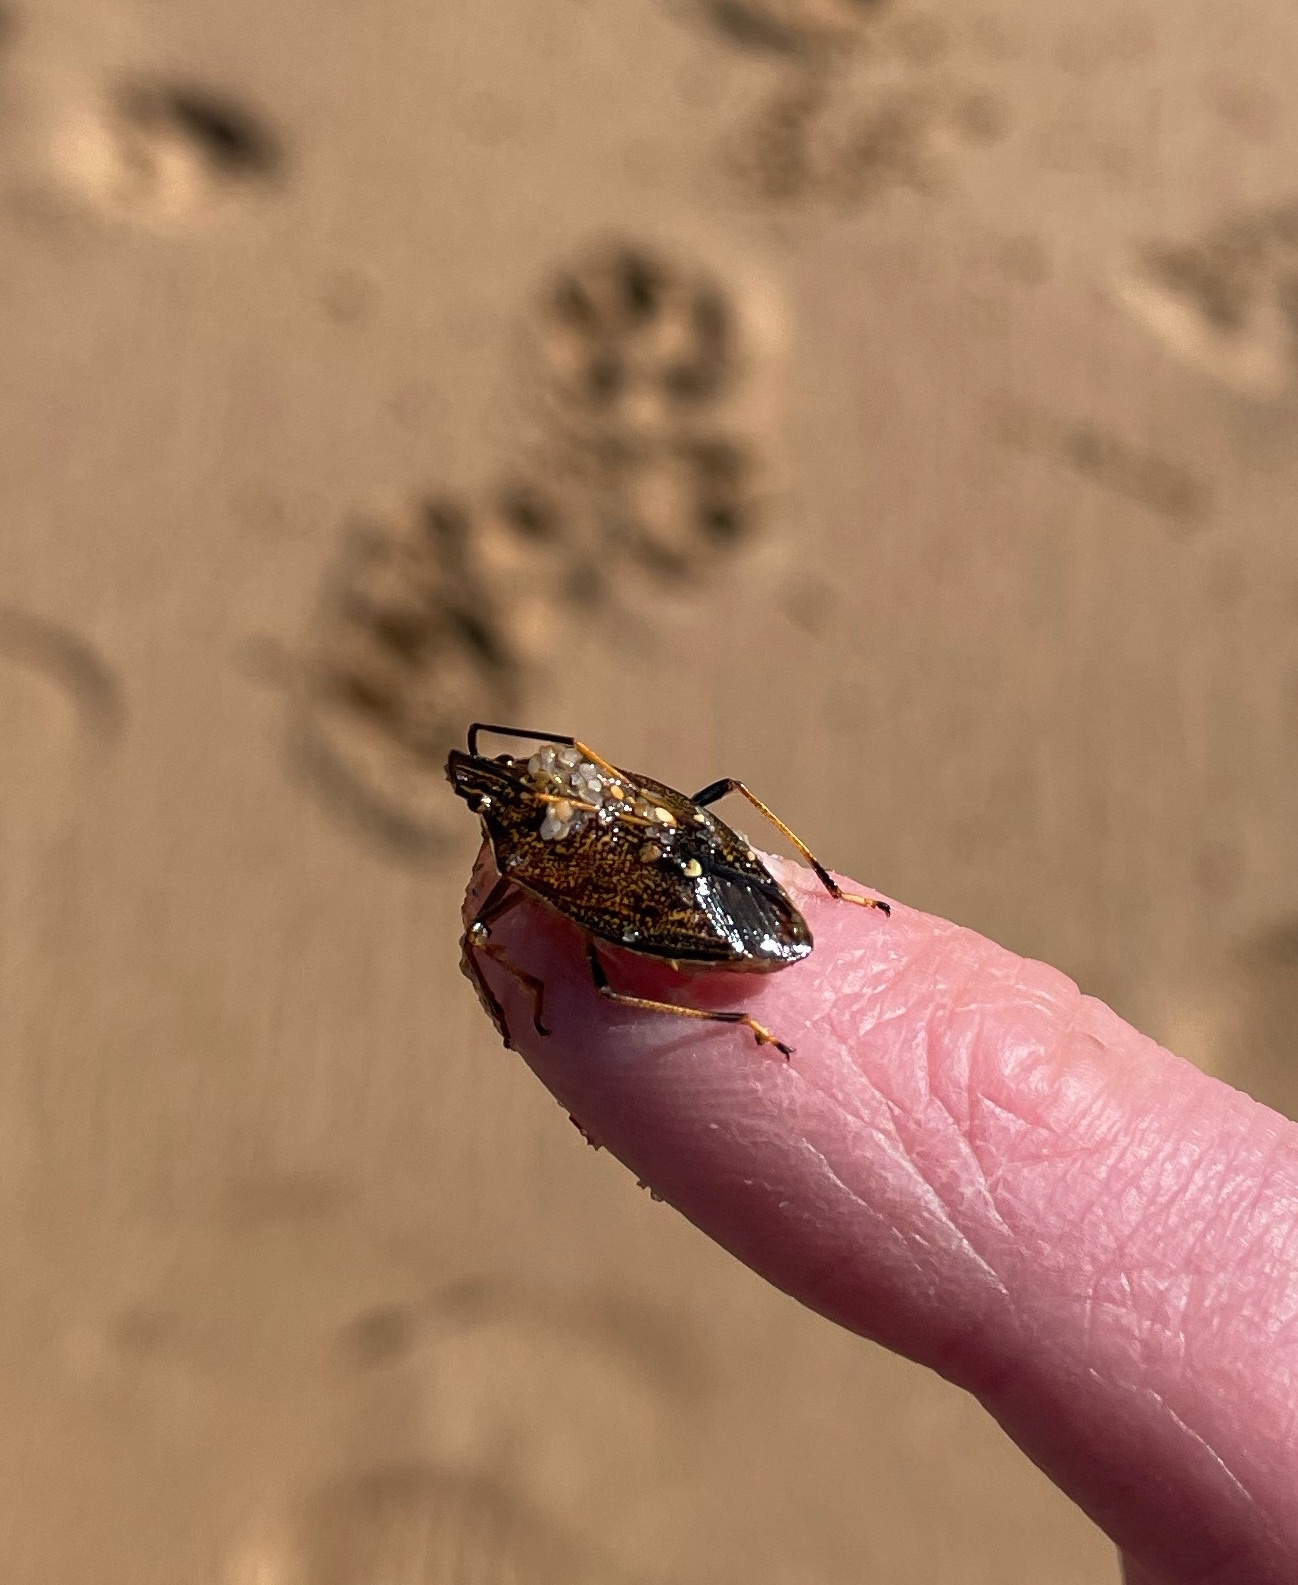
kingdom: Animalia
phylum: Arthropoda
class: Insecta
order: Hemiptera
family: Pentatomidae
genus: Poecilometis
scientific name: Poecilometis
